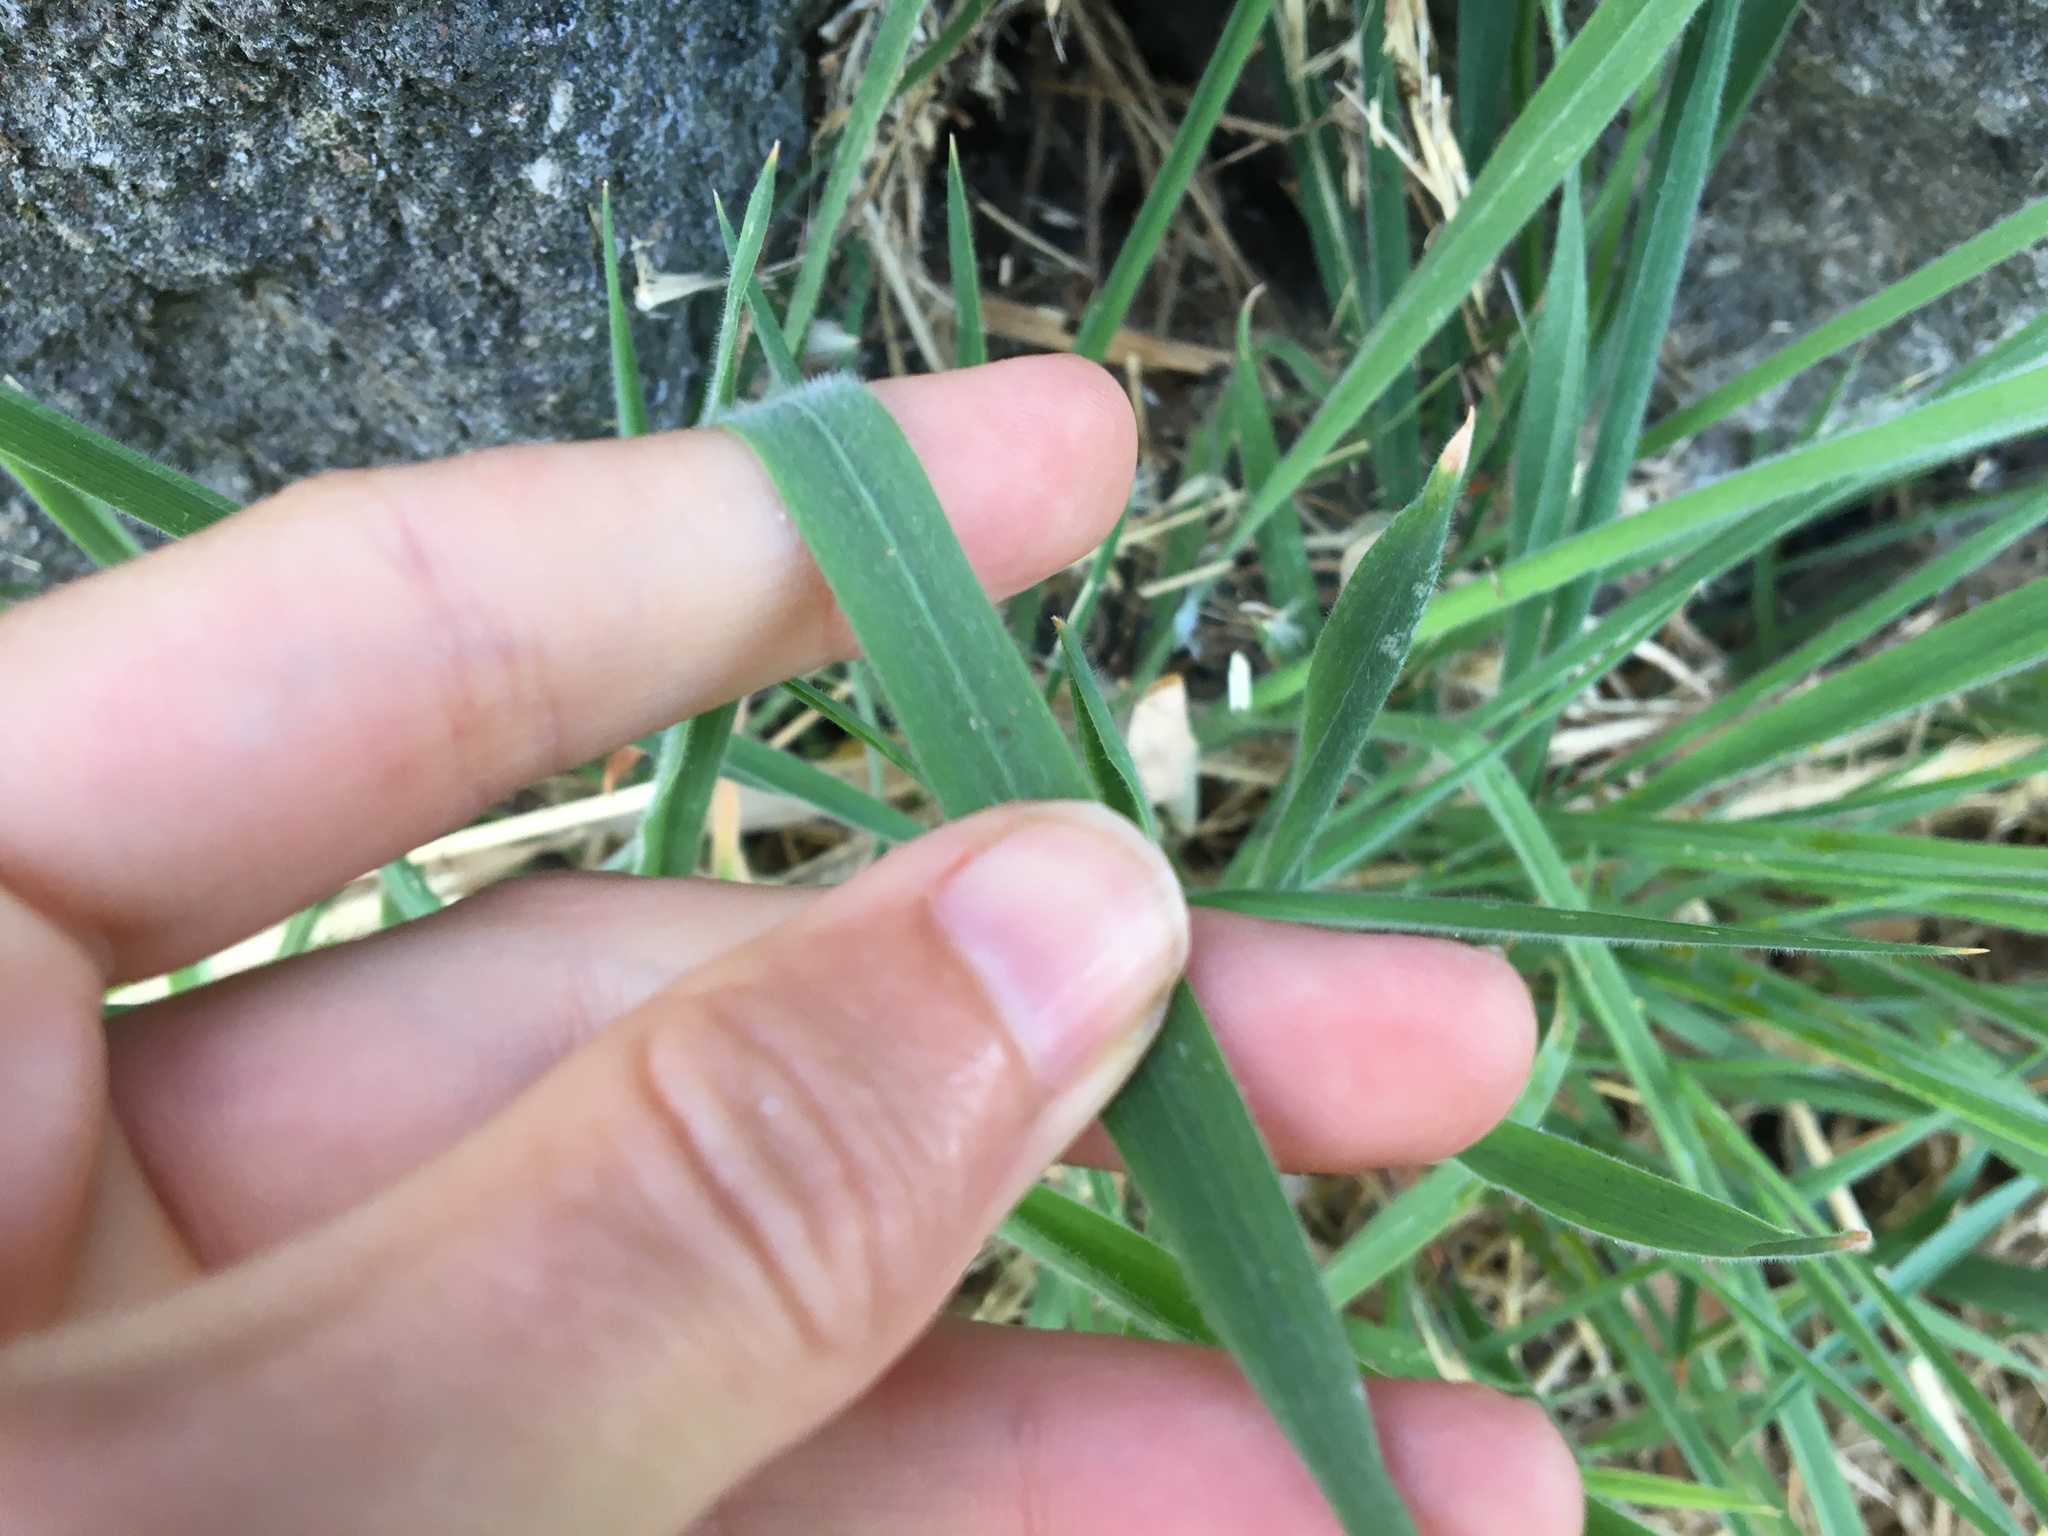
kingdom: Plantae
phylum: Tracheophyta
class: Liliopsida
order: Poales
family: Poaceae
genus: Holcus
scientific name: Holcus lanatus
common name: Yorkshire-fog
